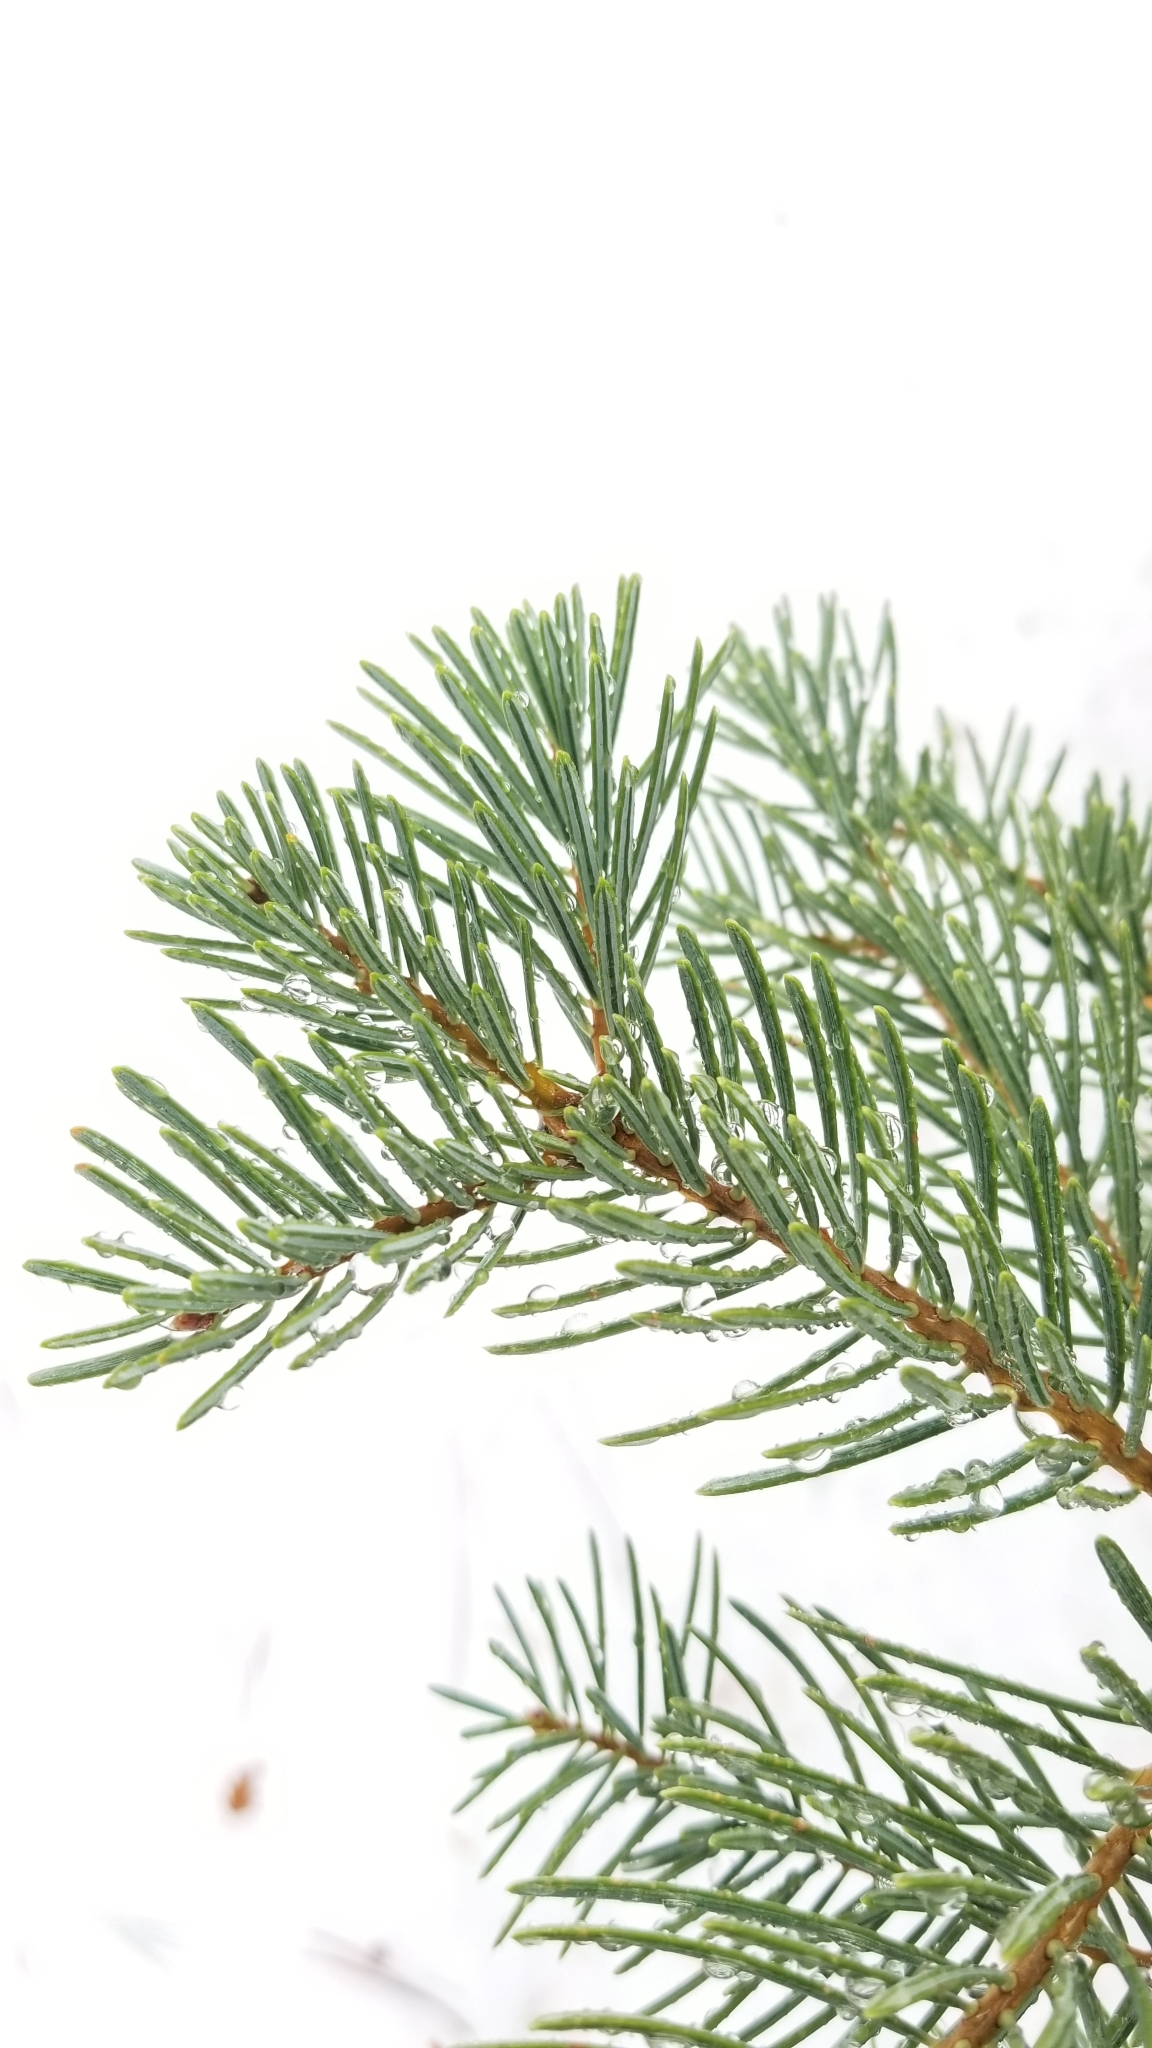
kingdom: Plantae
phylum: Tracheophyta
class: Pinopsida
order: Pinales
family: Pinaceae
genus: Abies
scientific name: Abies concolor
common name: Colorado fir
